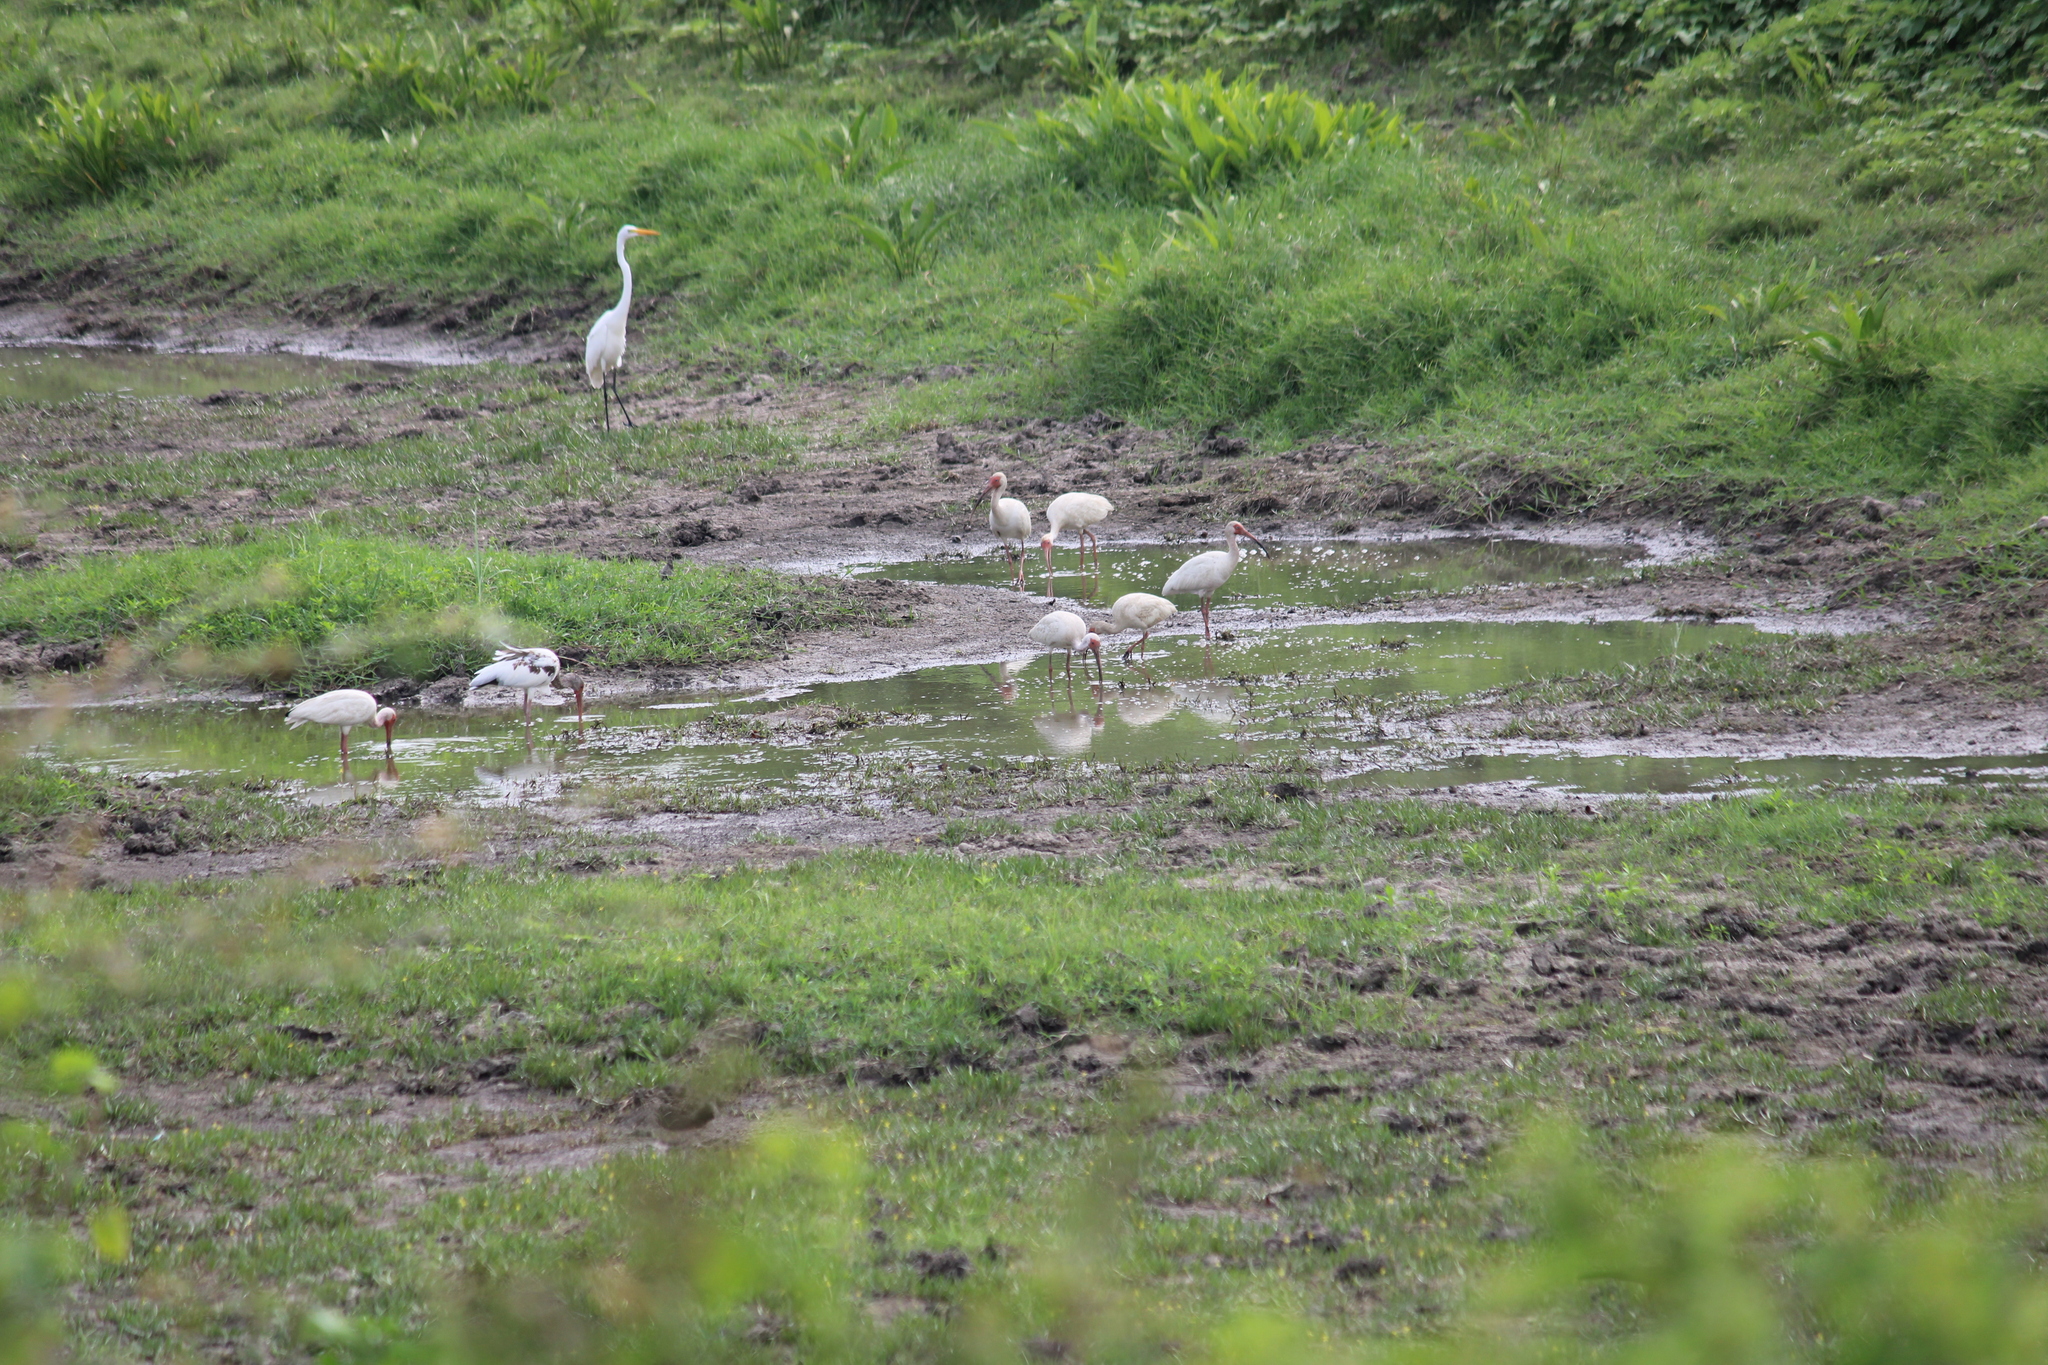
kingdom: Animalia
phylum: Chordata
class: Aves
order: Pelecaniformes
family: Ardeidae
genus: Ardea
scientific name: Ardea alba
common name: Great egret
